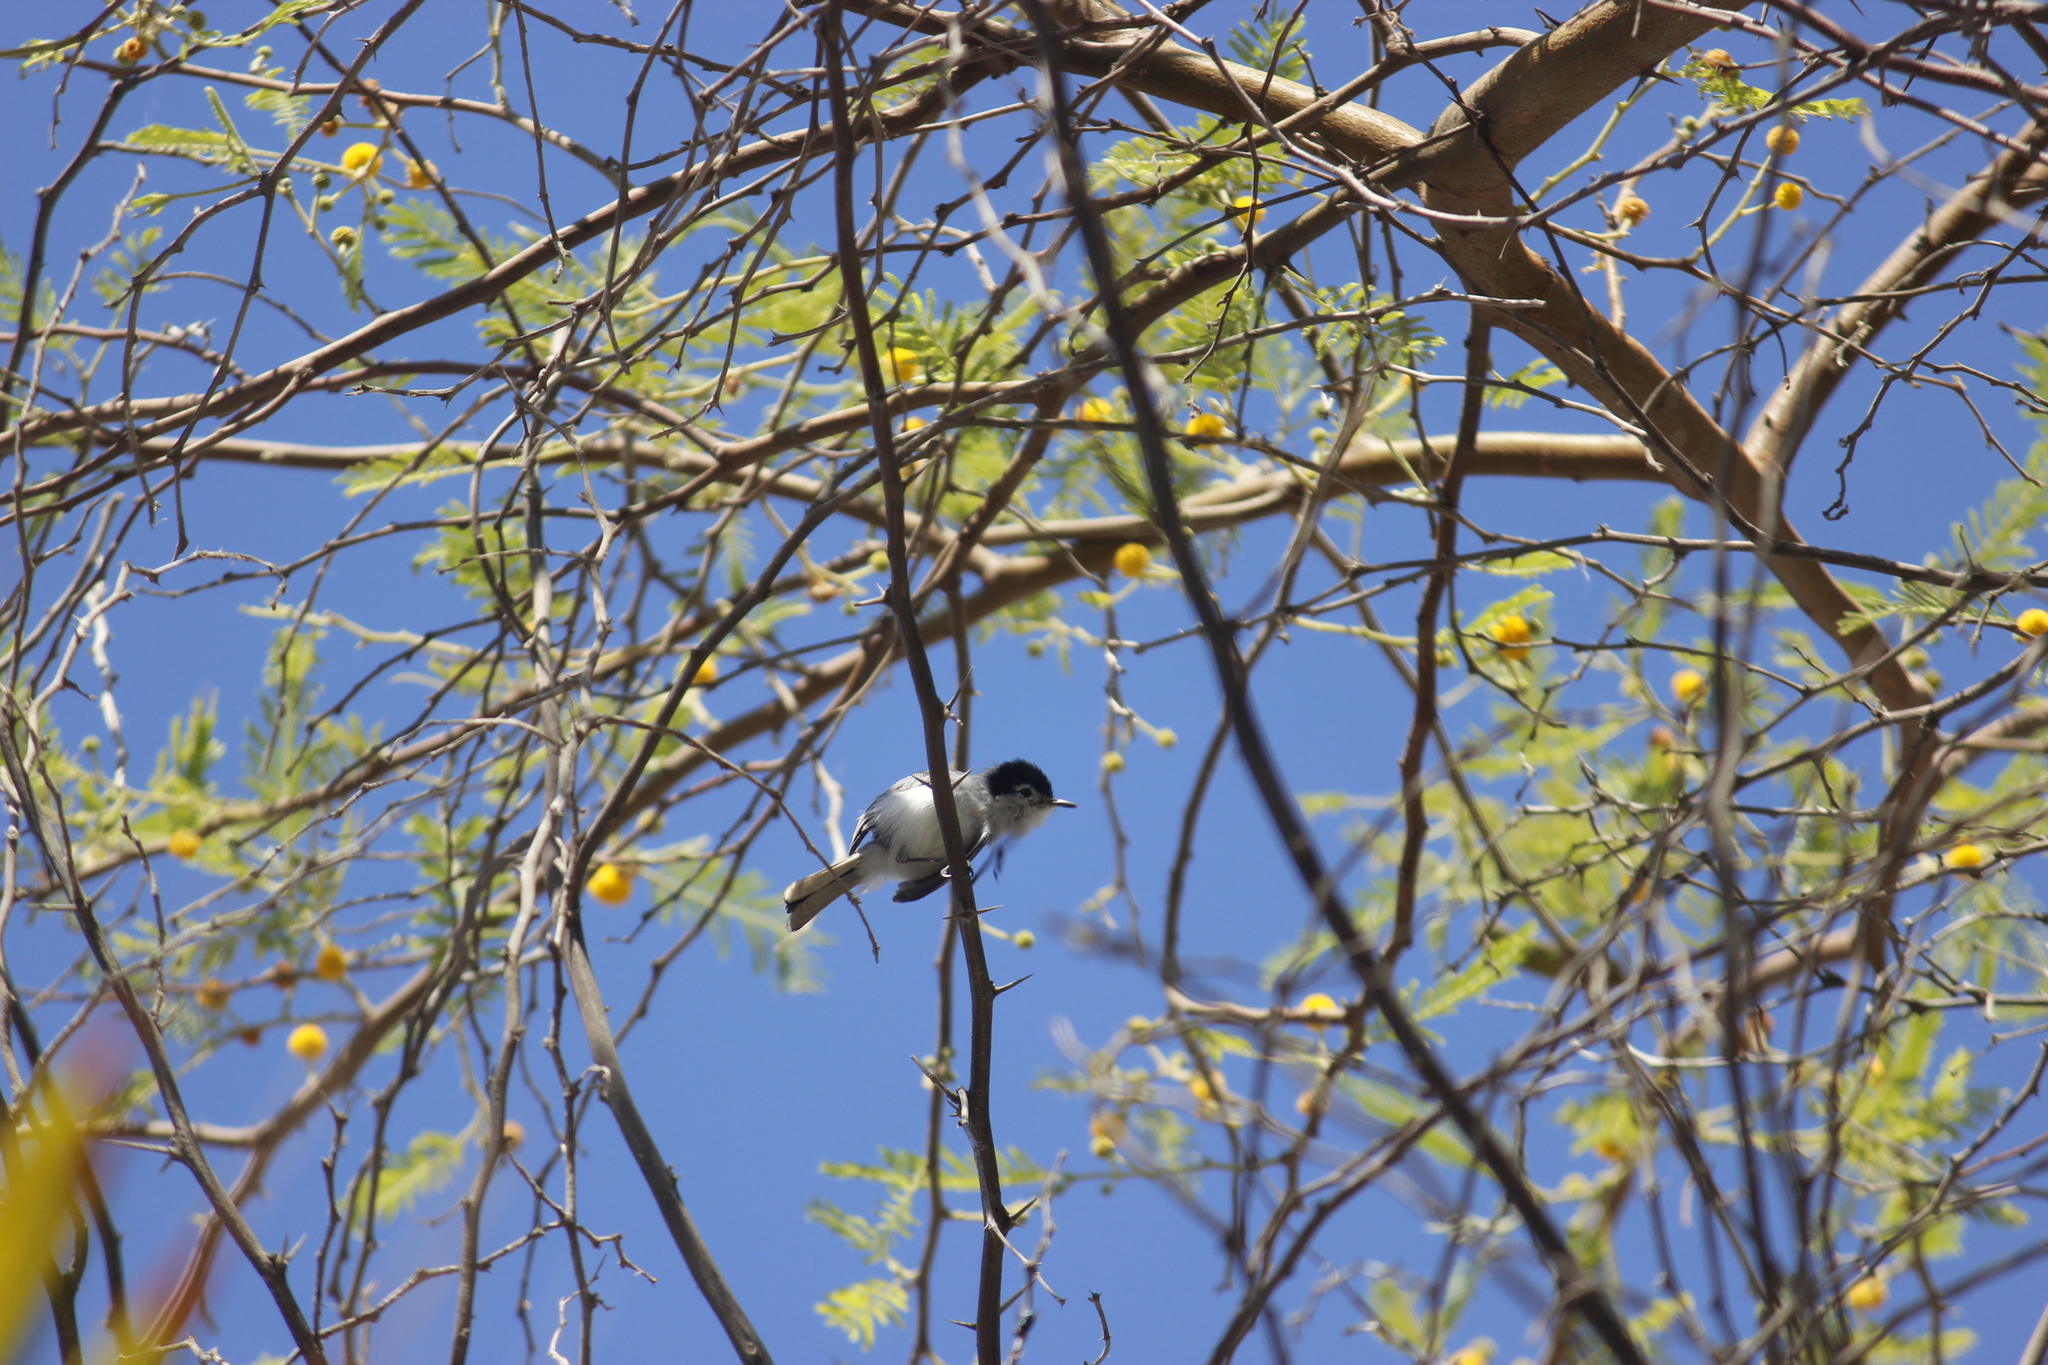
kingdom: Animalia
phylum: Chordata
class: Aves
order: Passeriformes
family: Polioptilidae
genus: Polioptila
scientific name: Polioptila plumbea
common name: Tropical gnatcatcher
